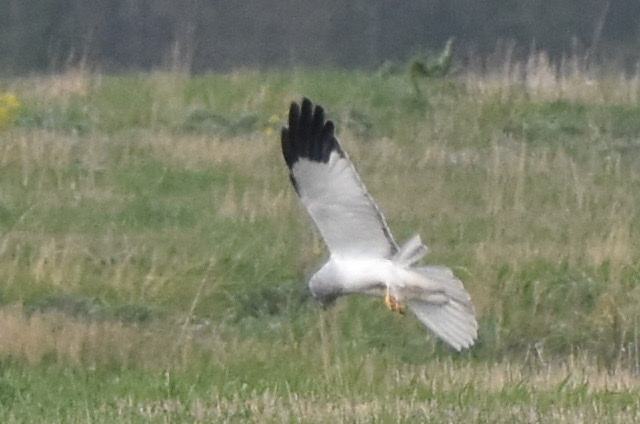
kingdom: Animalia
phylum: Chordata
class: Aves
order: Accipitriformes
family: Accipitridae
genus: Circus
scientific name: Circus cyaneus
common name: Hen harrier
